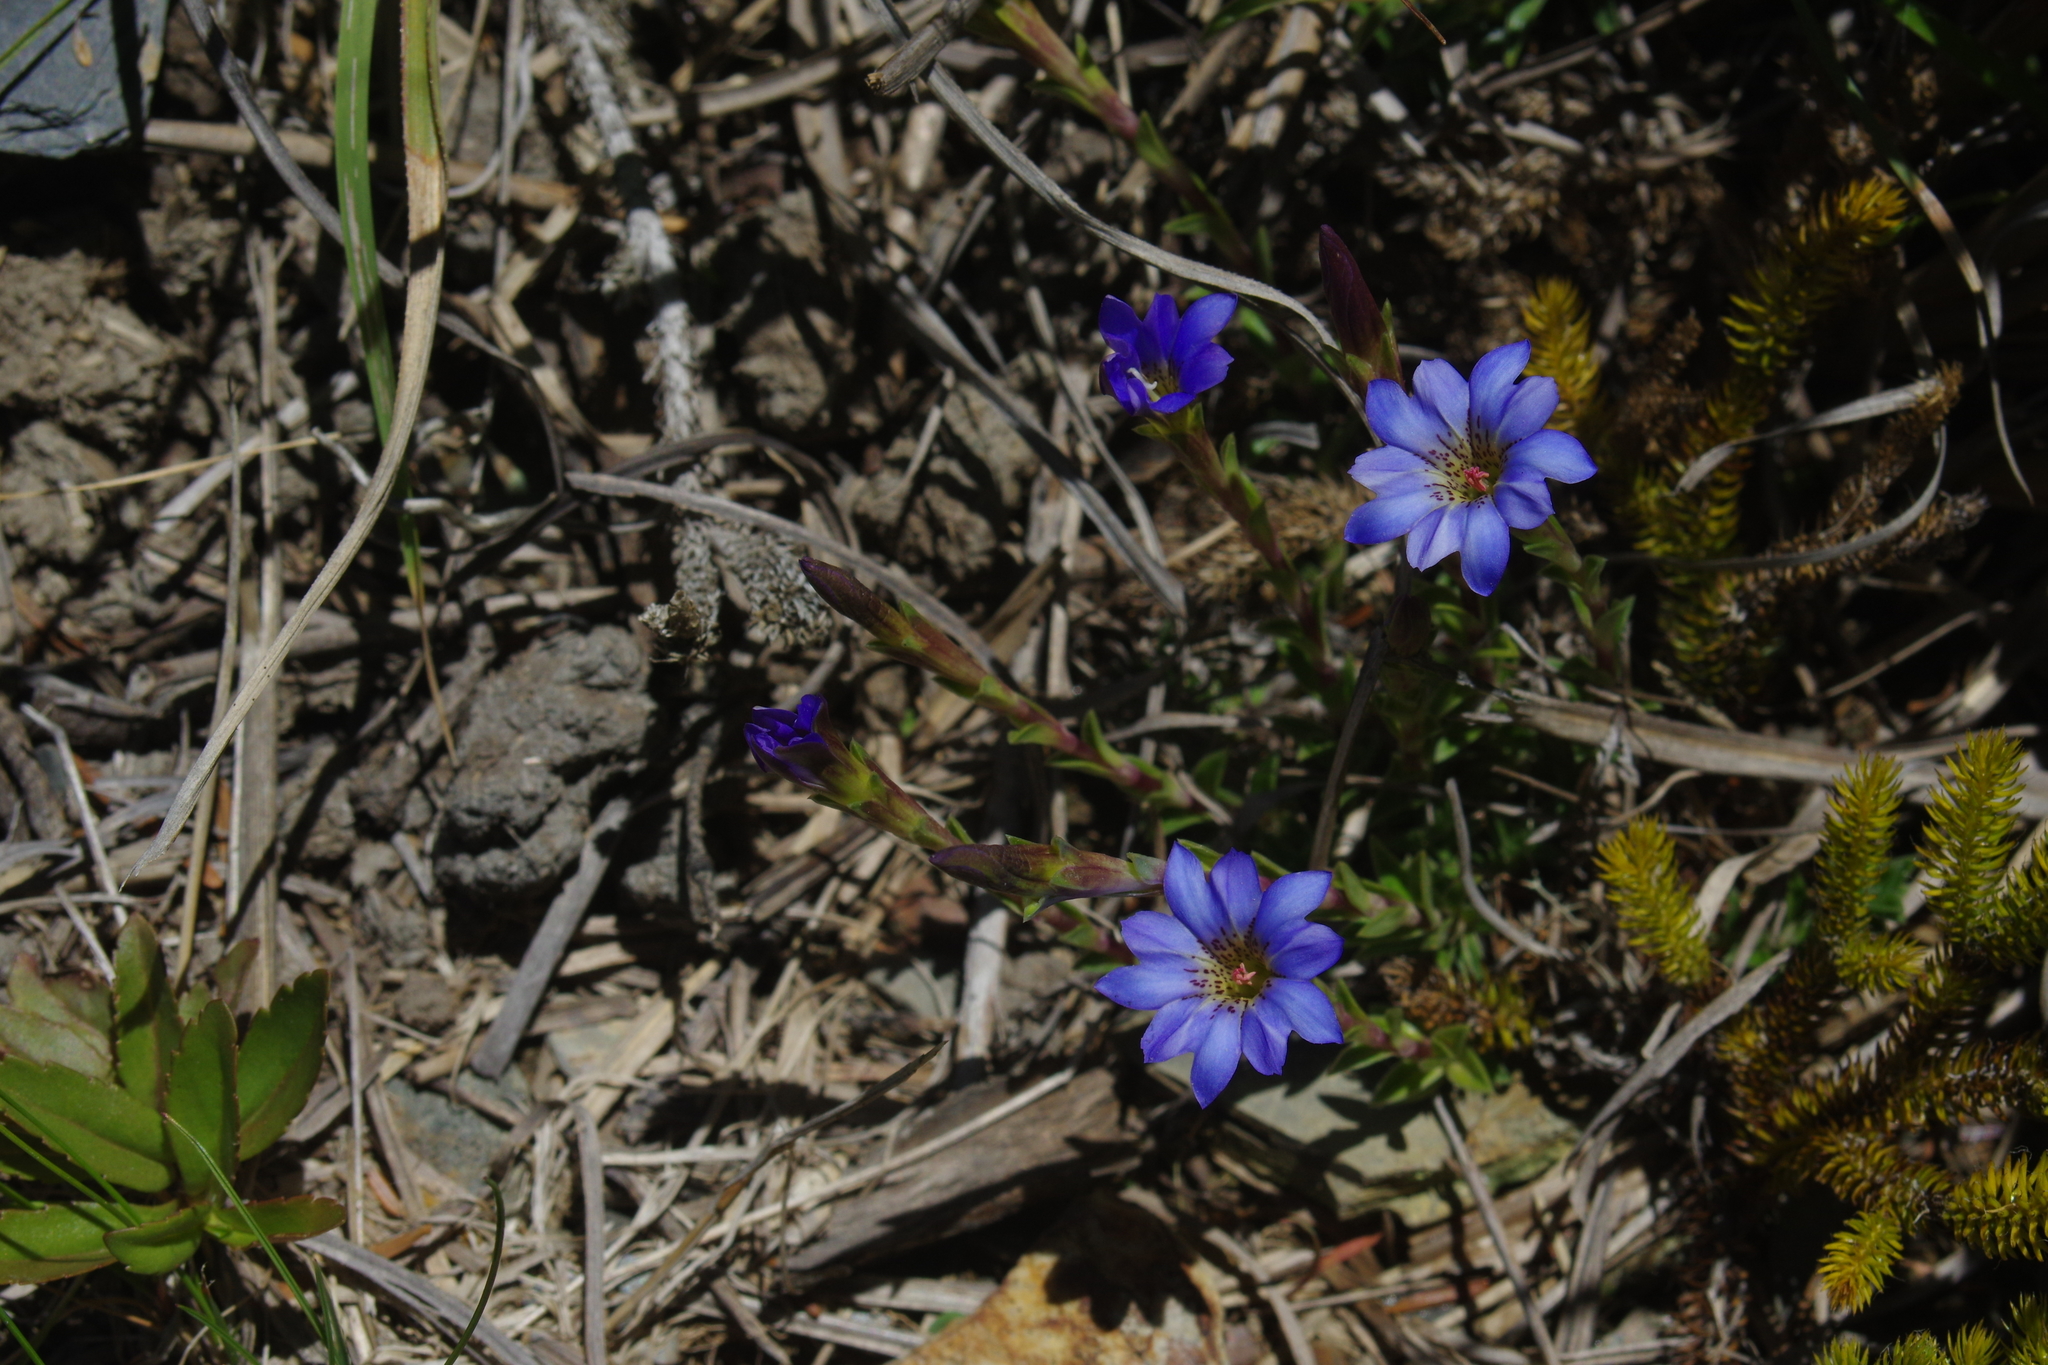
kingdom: Plantae
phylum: Tracheophyta
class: Magnoliopsida
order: Gentianales
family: Gentianaceae
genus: Gentiana
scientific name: Gentiana arisanensis
